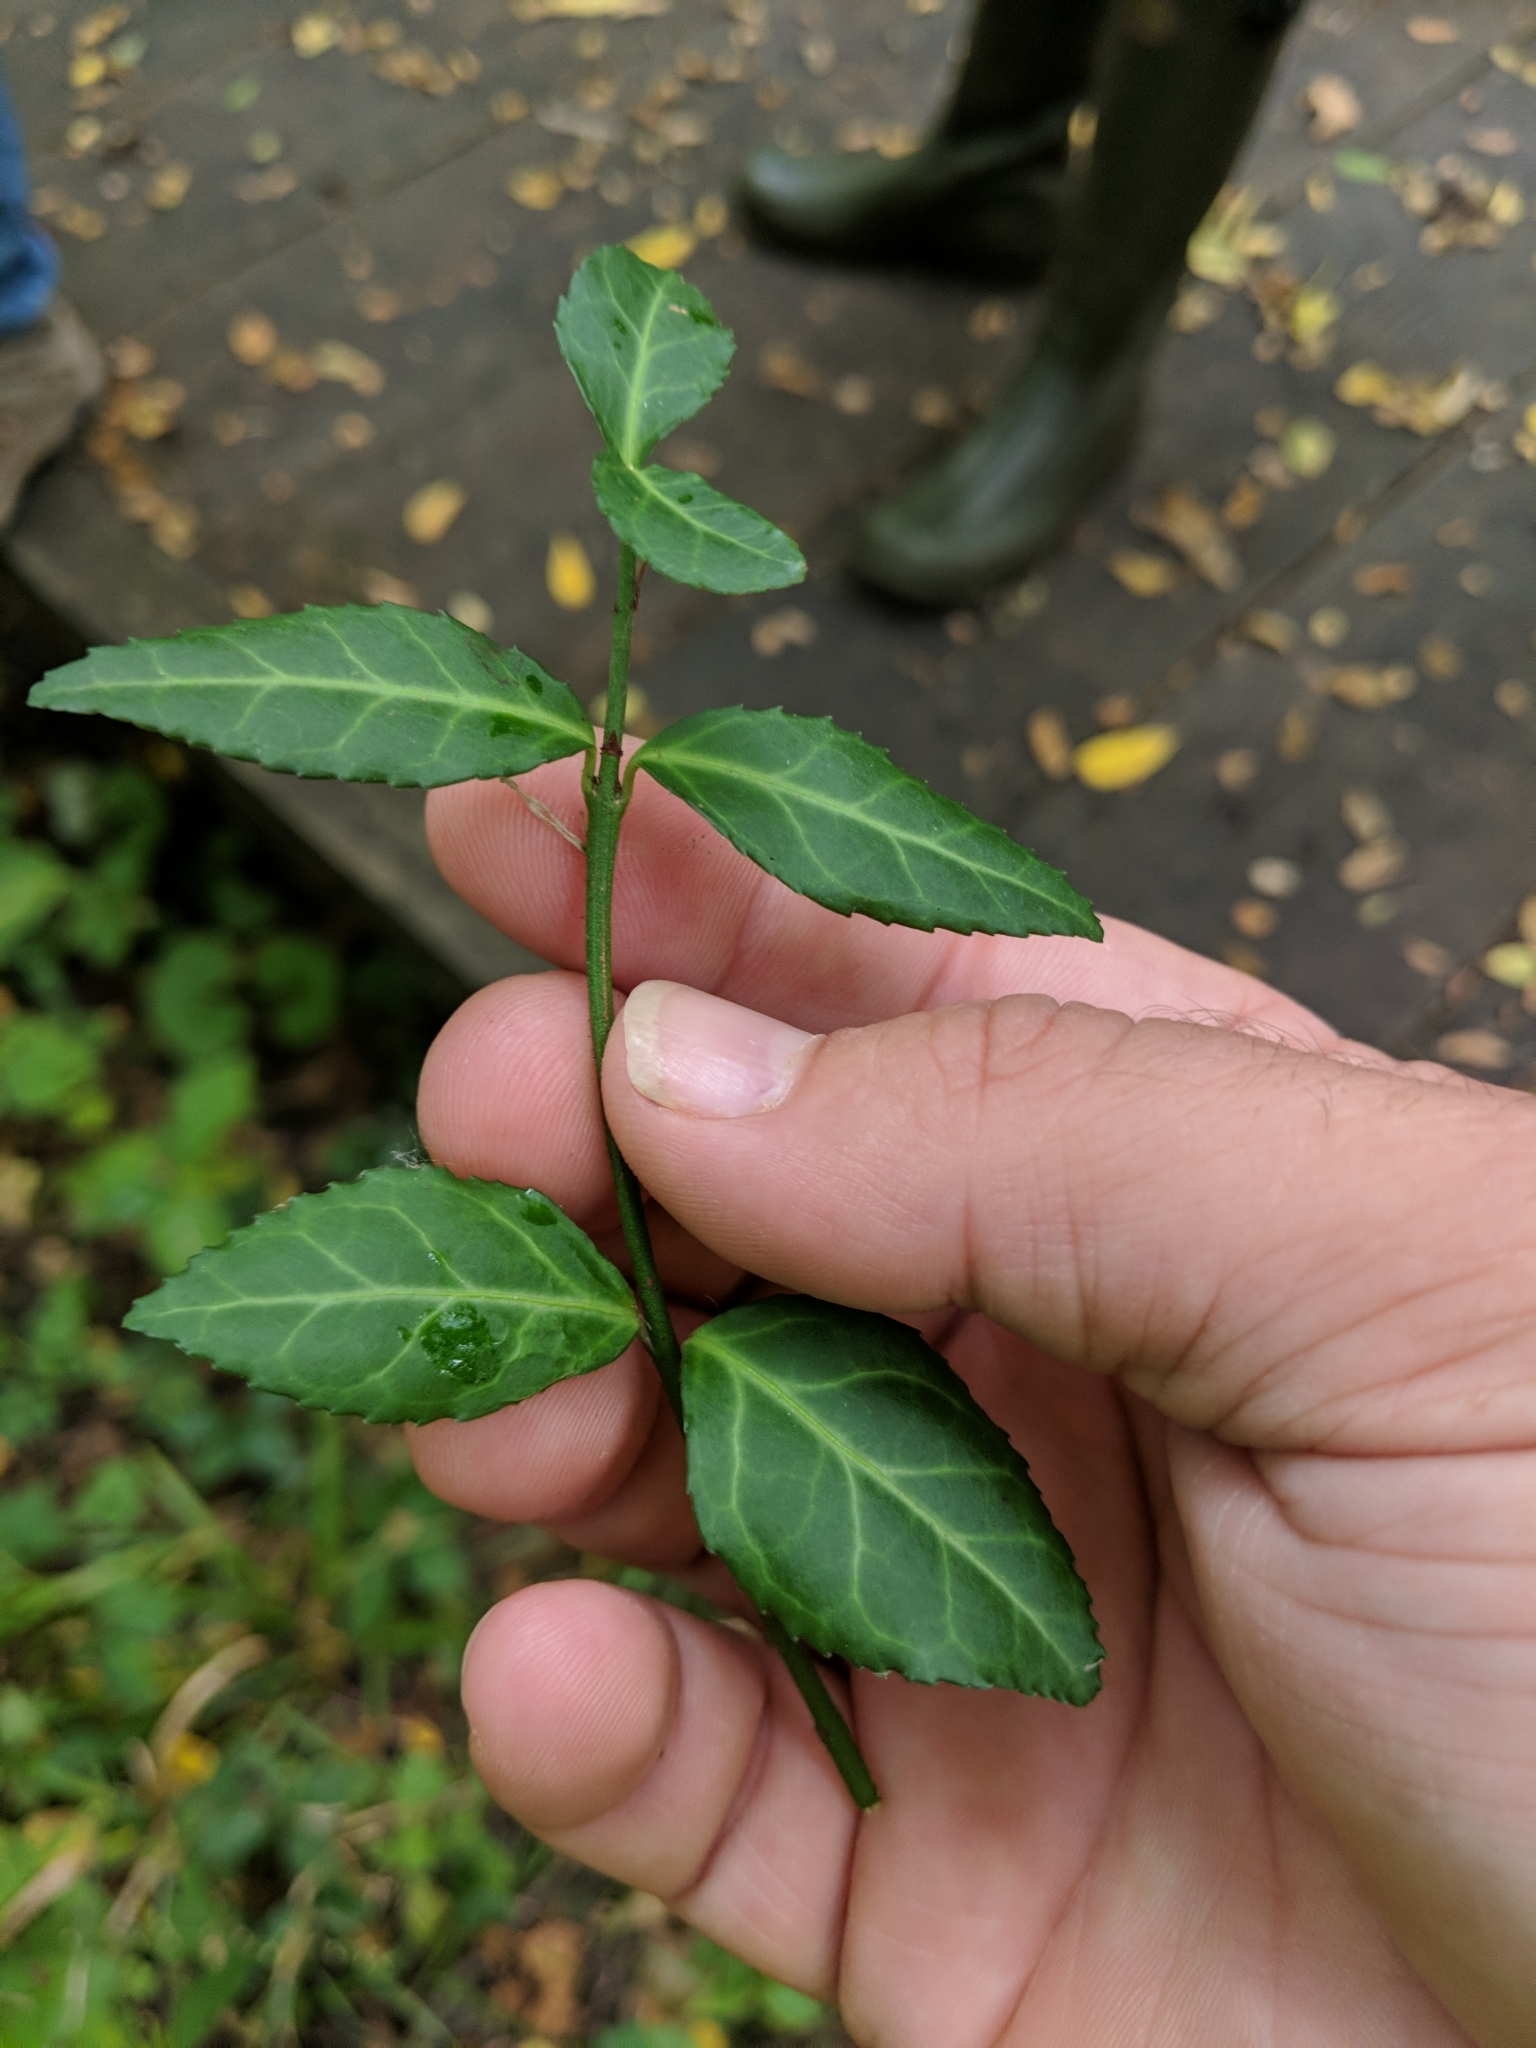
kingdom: Plantae
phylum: Tracheophyta
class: Magnoliopsida
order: Celastrales
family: Celastraceae
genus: Euonymus
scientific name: Euonymus fortunei
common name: Climbing euonymus
